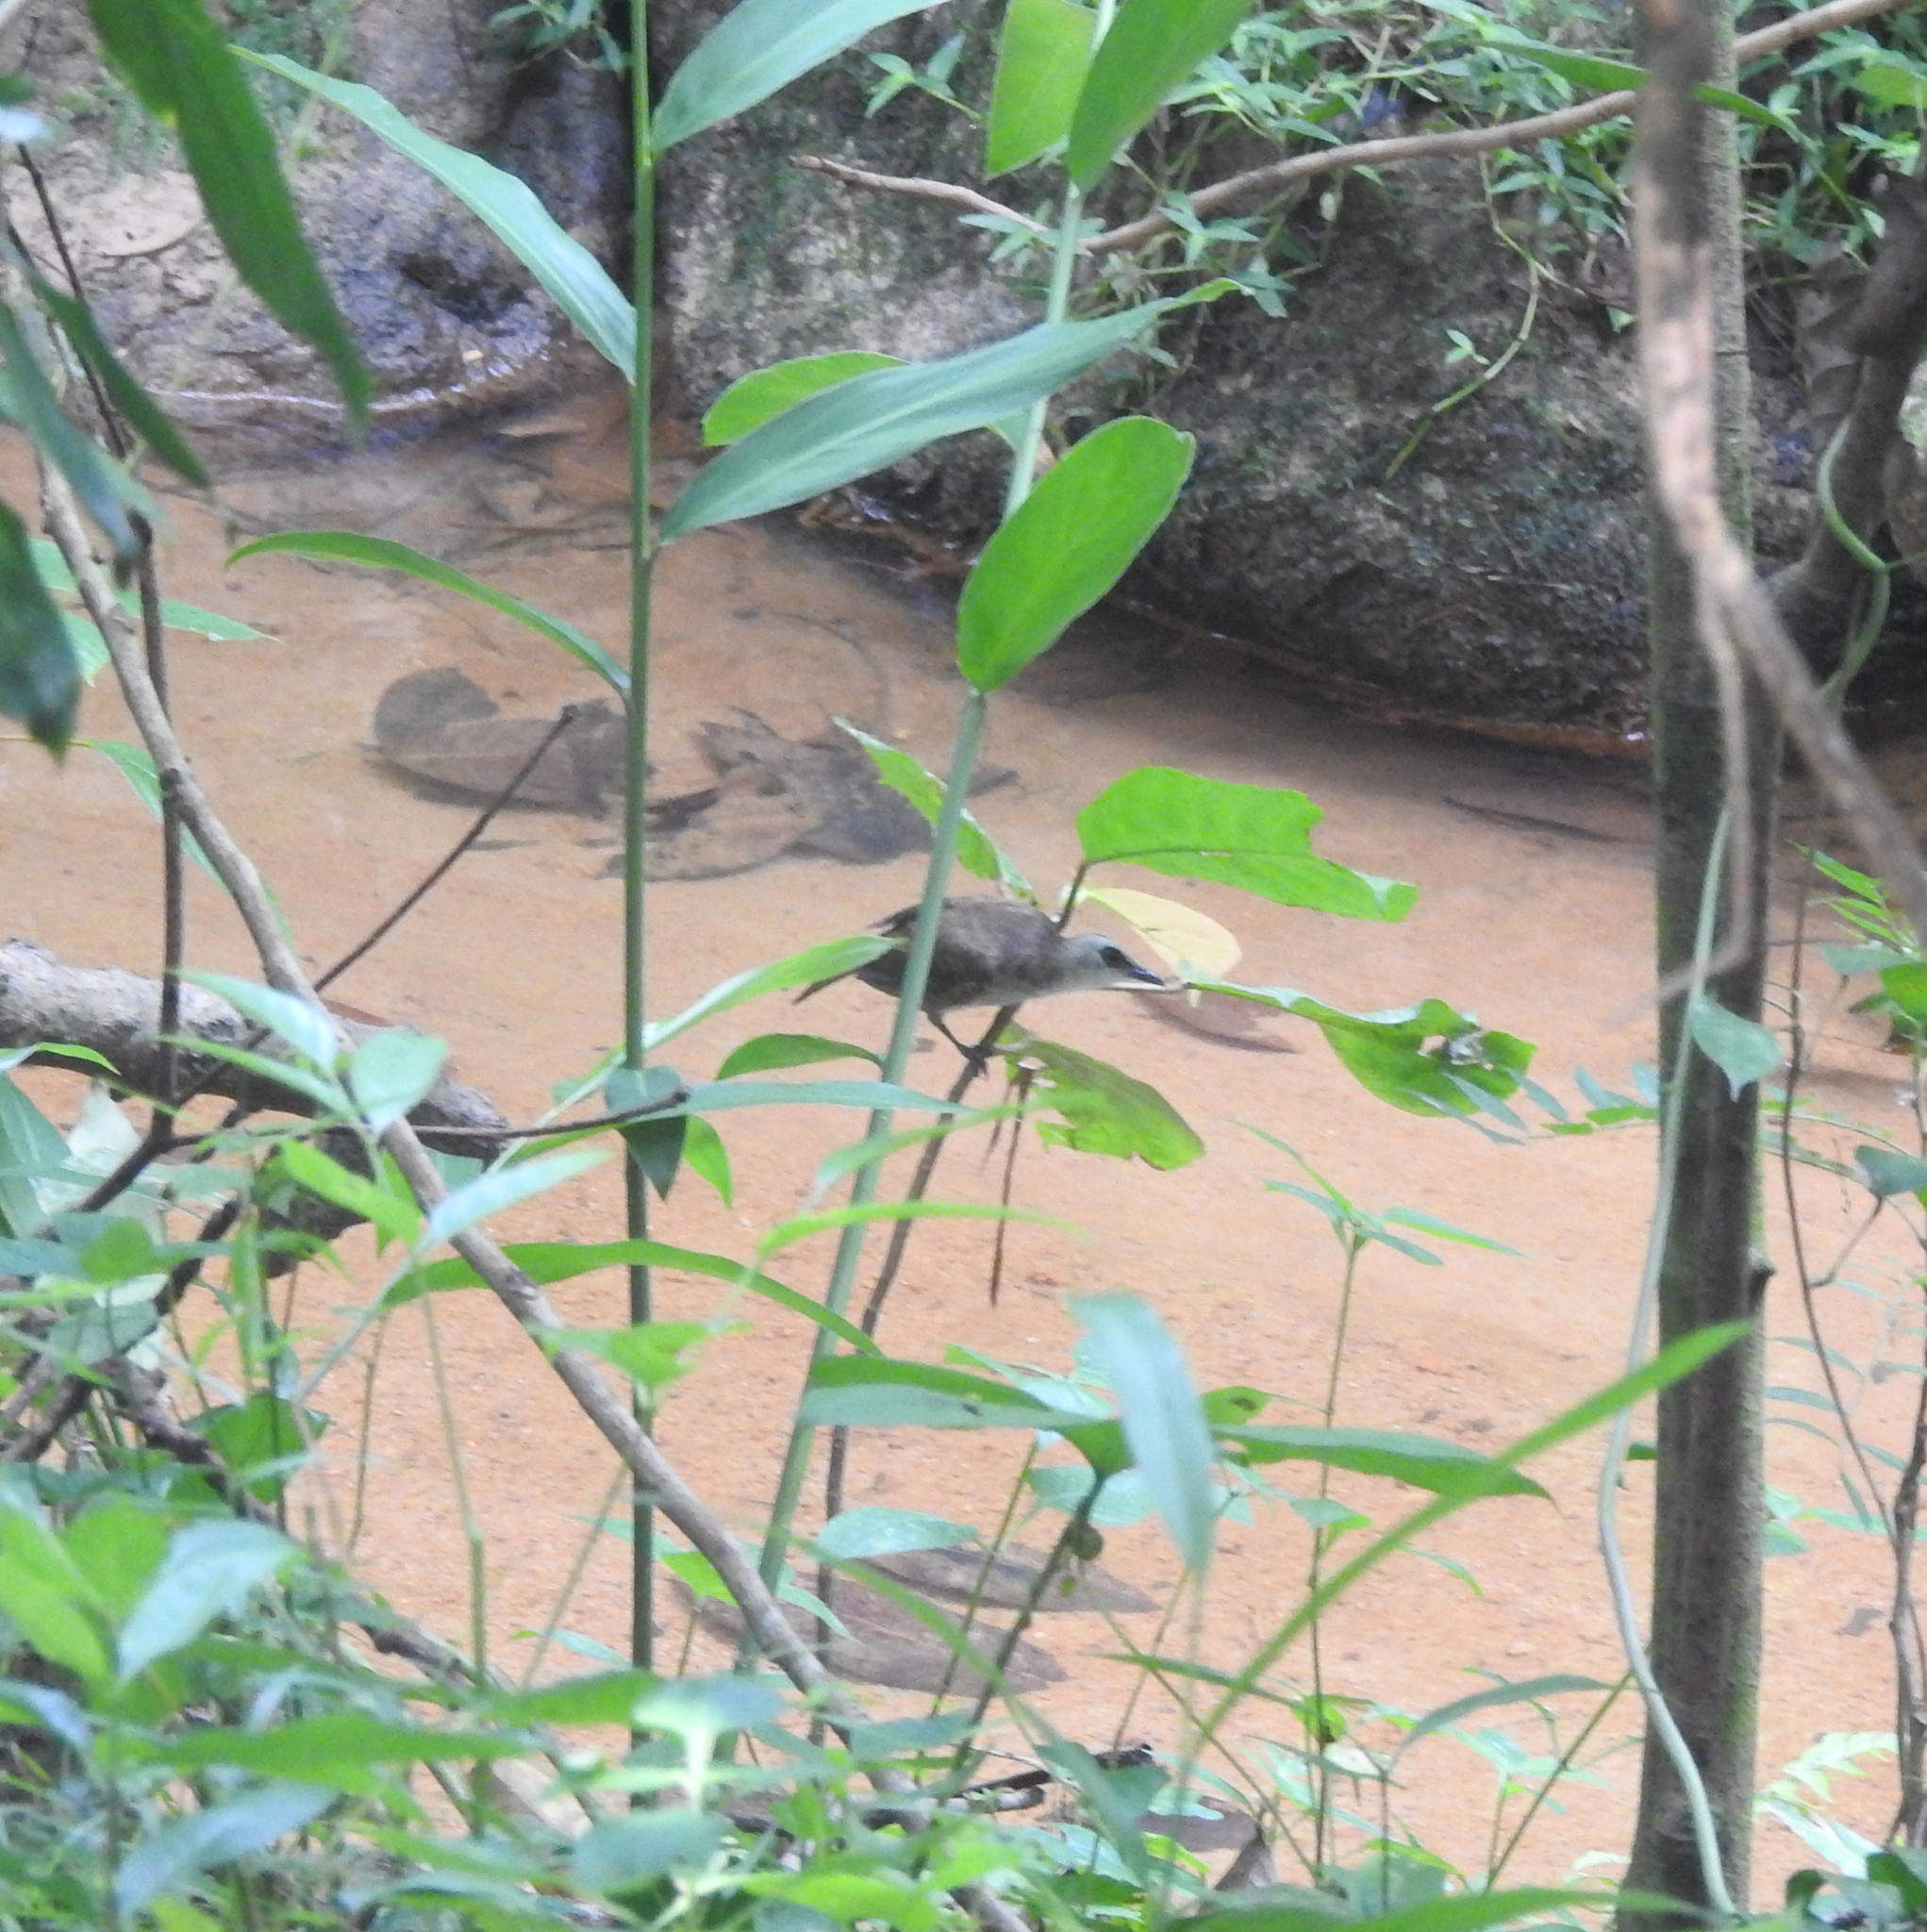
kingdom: Animalia
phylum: Chordata
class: Aves
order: Passeriformes
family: Pycnonotidae
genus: Pycnonotus
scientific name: Pycnonotus goiavier
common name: Yellow-vented bulbul
